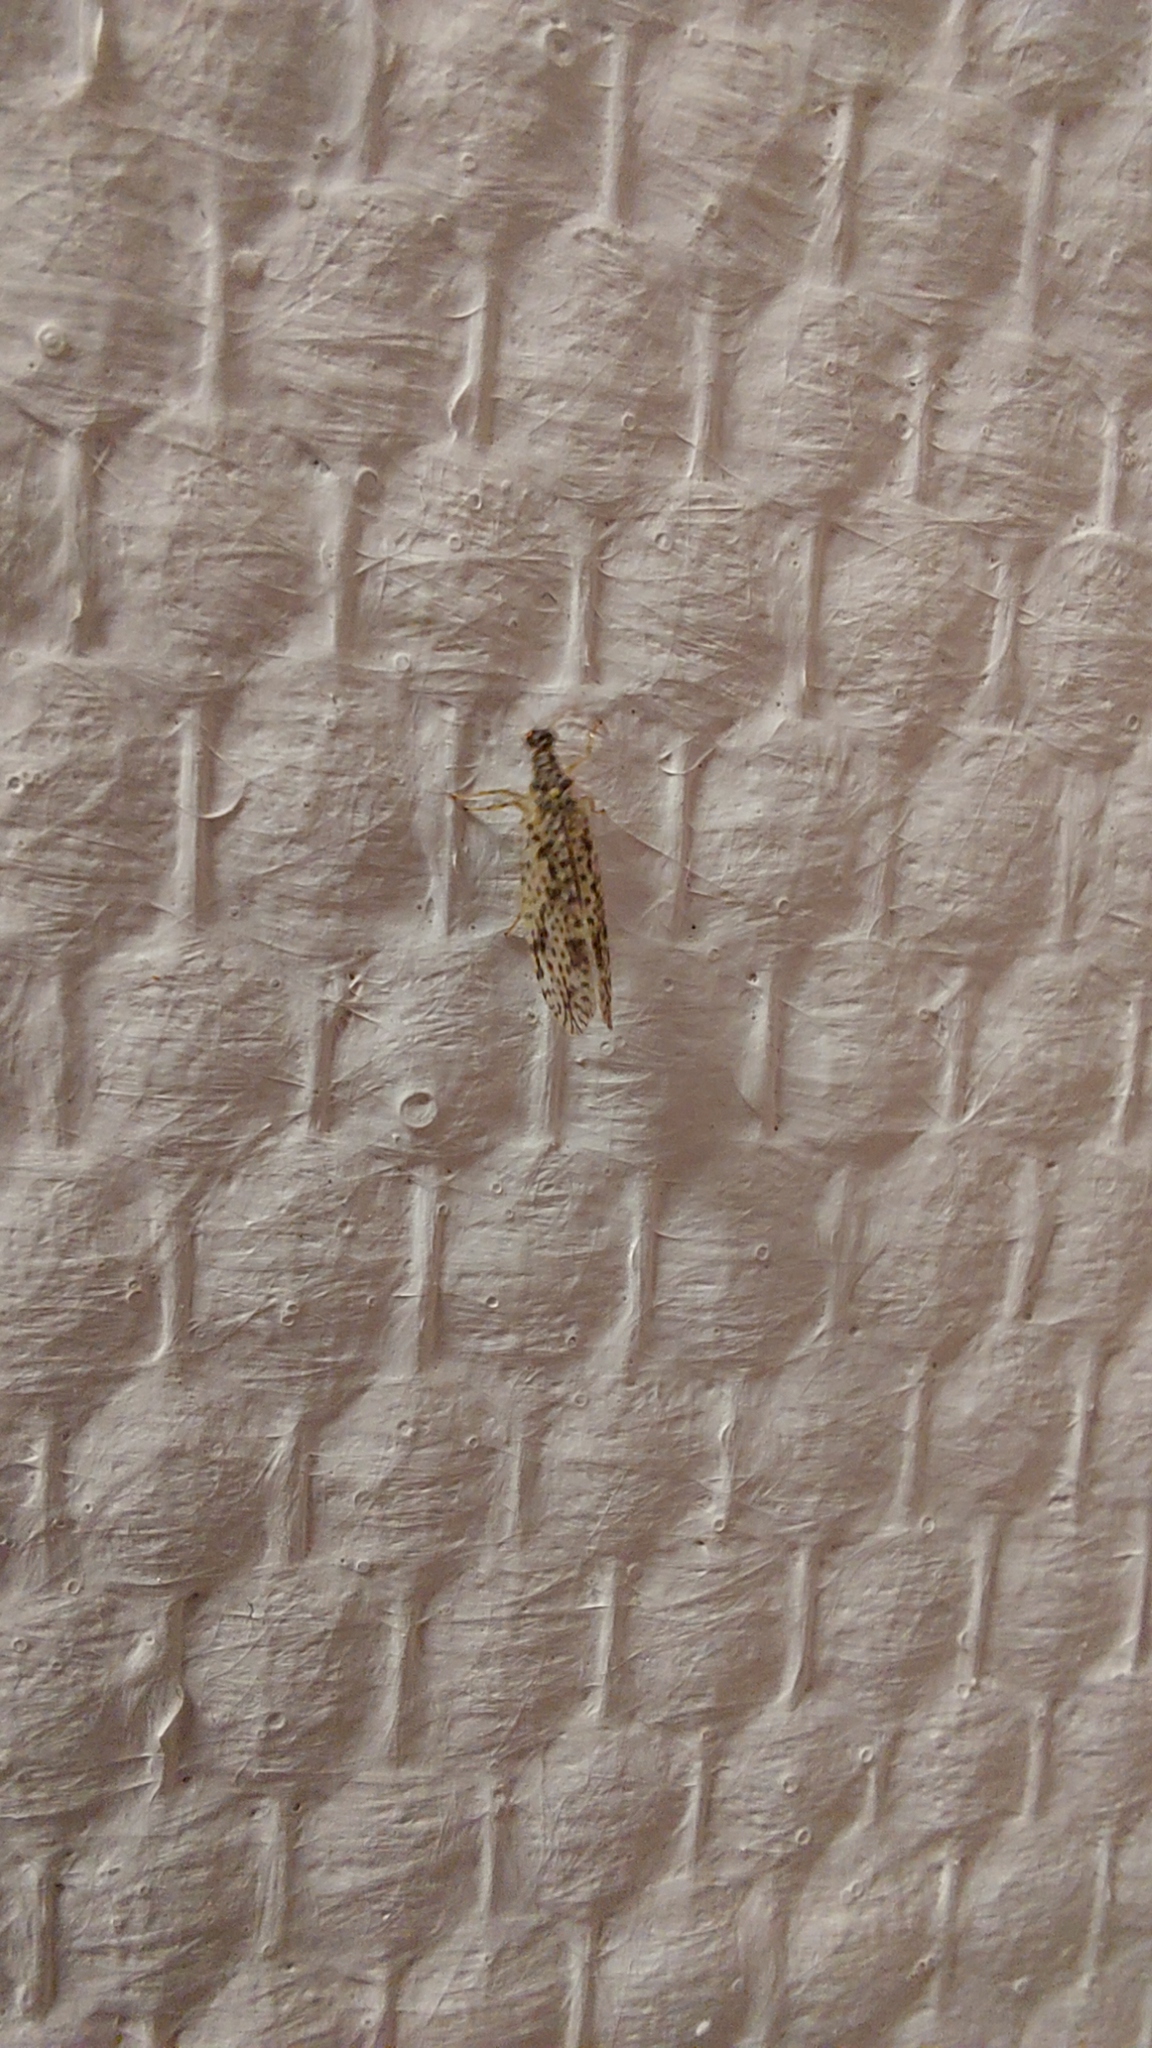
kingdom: Animalia
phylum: Arthropoda
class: Insecta
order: Neuroptera
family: Hemerobiidae
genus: Micromus
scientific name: Micromus variegatus
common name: Brown lacewing
